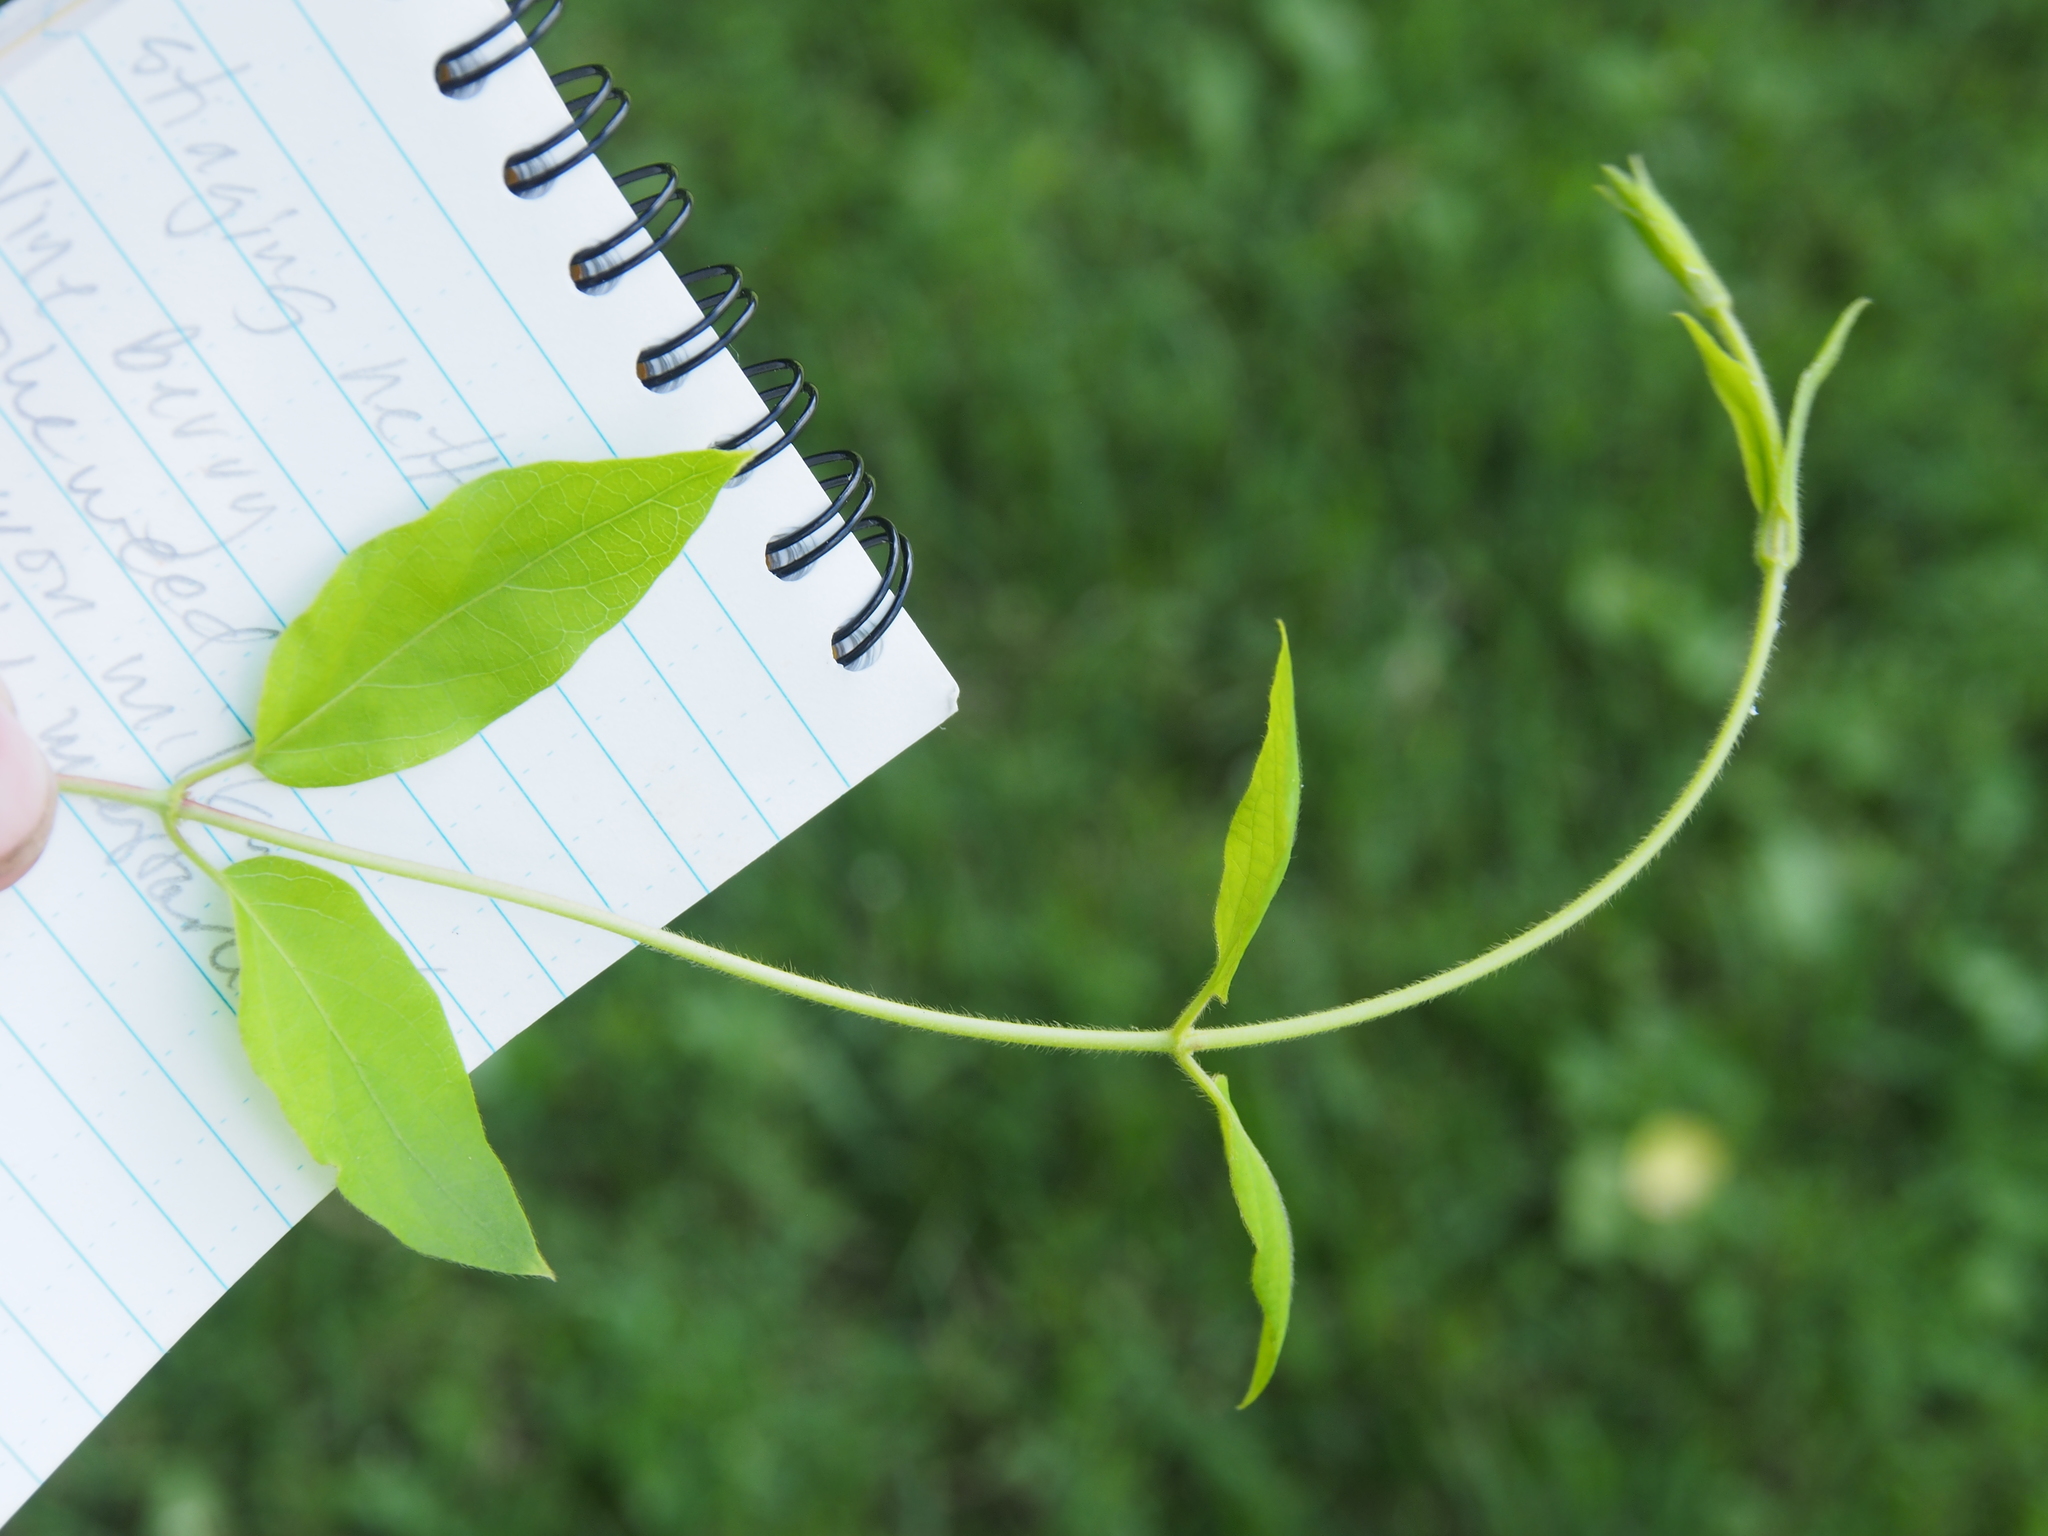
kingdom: Plantae
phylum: Tracheophyta
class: Magnoliopsida
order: Dipsacales
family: Caprifoliaceae
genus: Lonicera
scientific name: Lonicera japonica
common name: Japanese honeysuckle
